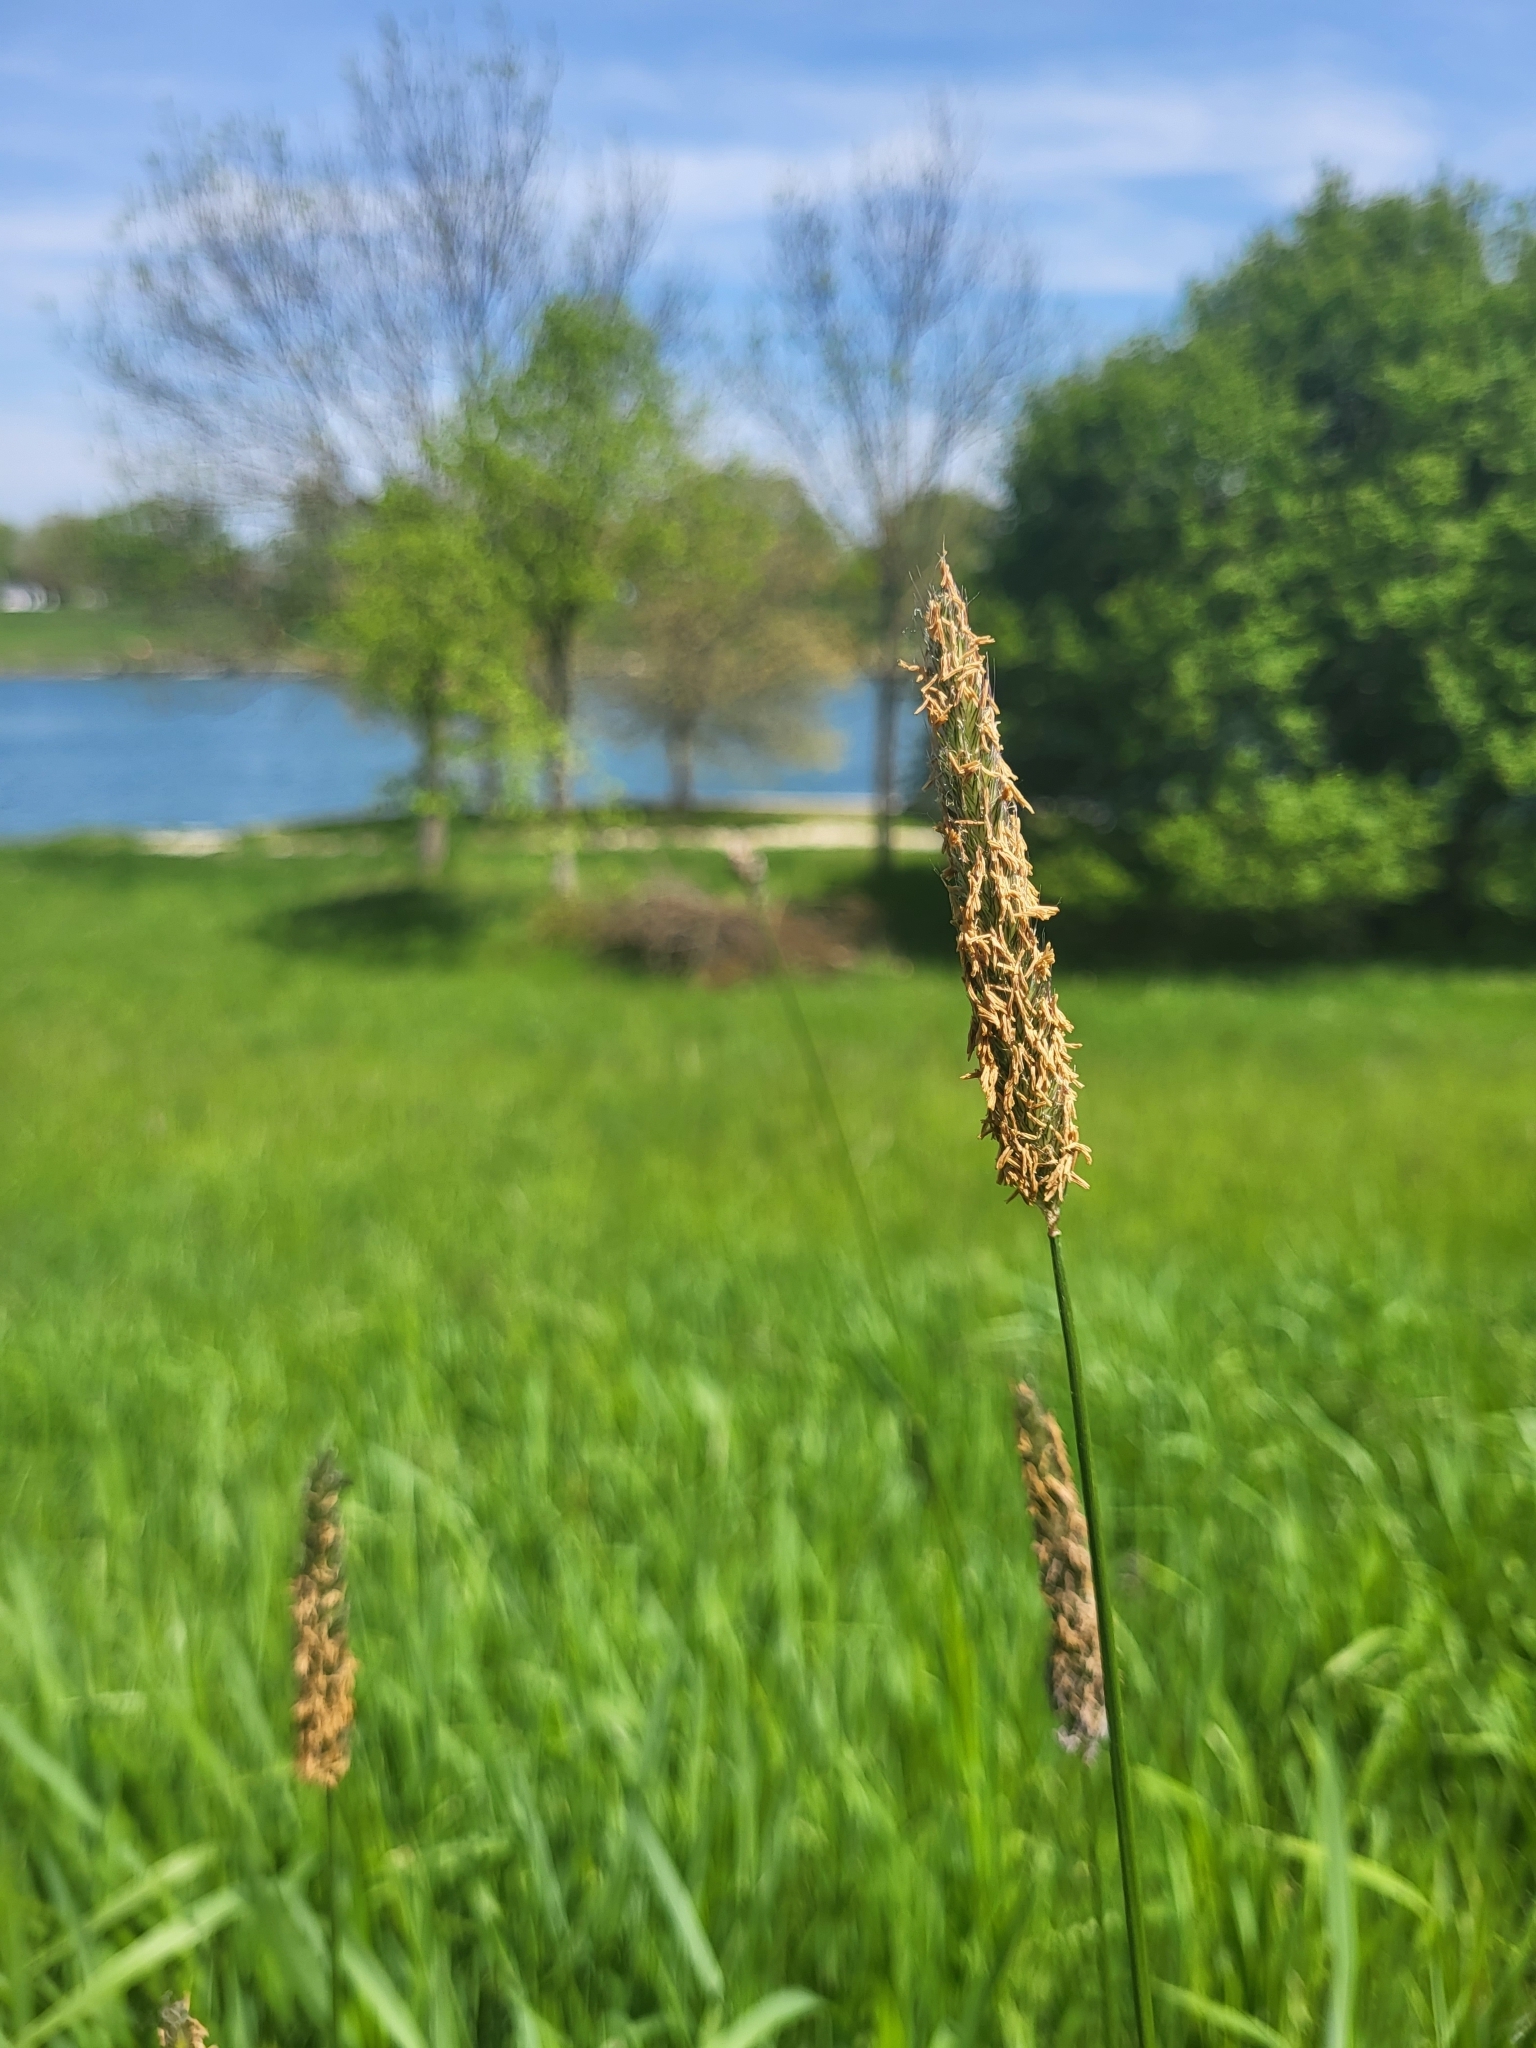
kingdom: Plantae
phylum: Tracheophyta
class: Liliopsida
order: Poales
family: Poaceae
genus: Alopecurus
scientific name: Alopecurus pratensis
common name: Meadow foxtail
